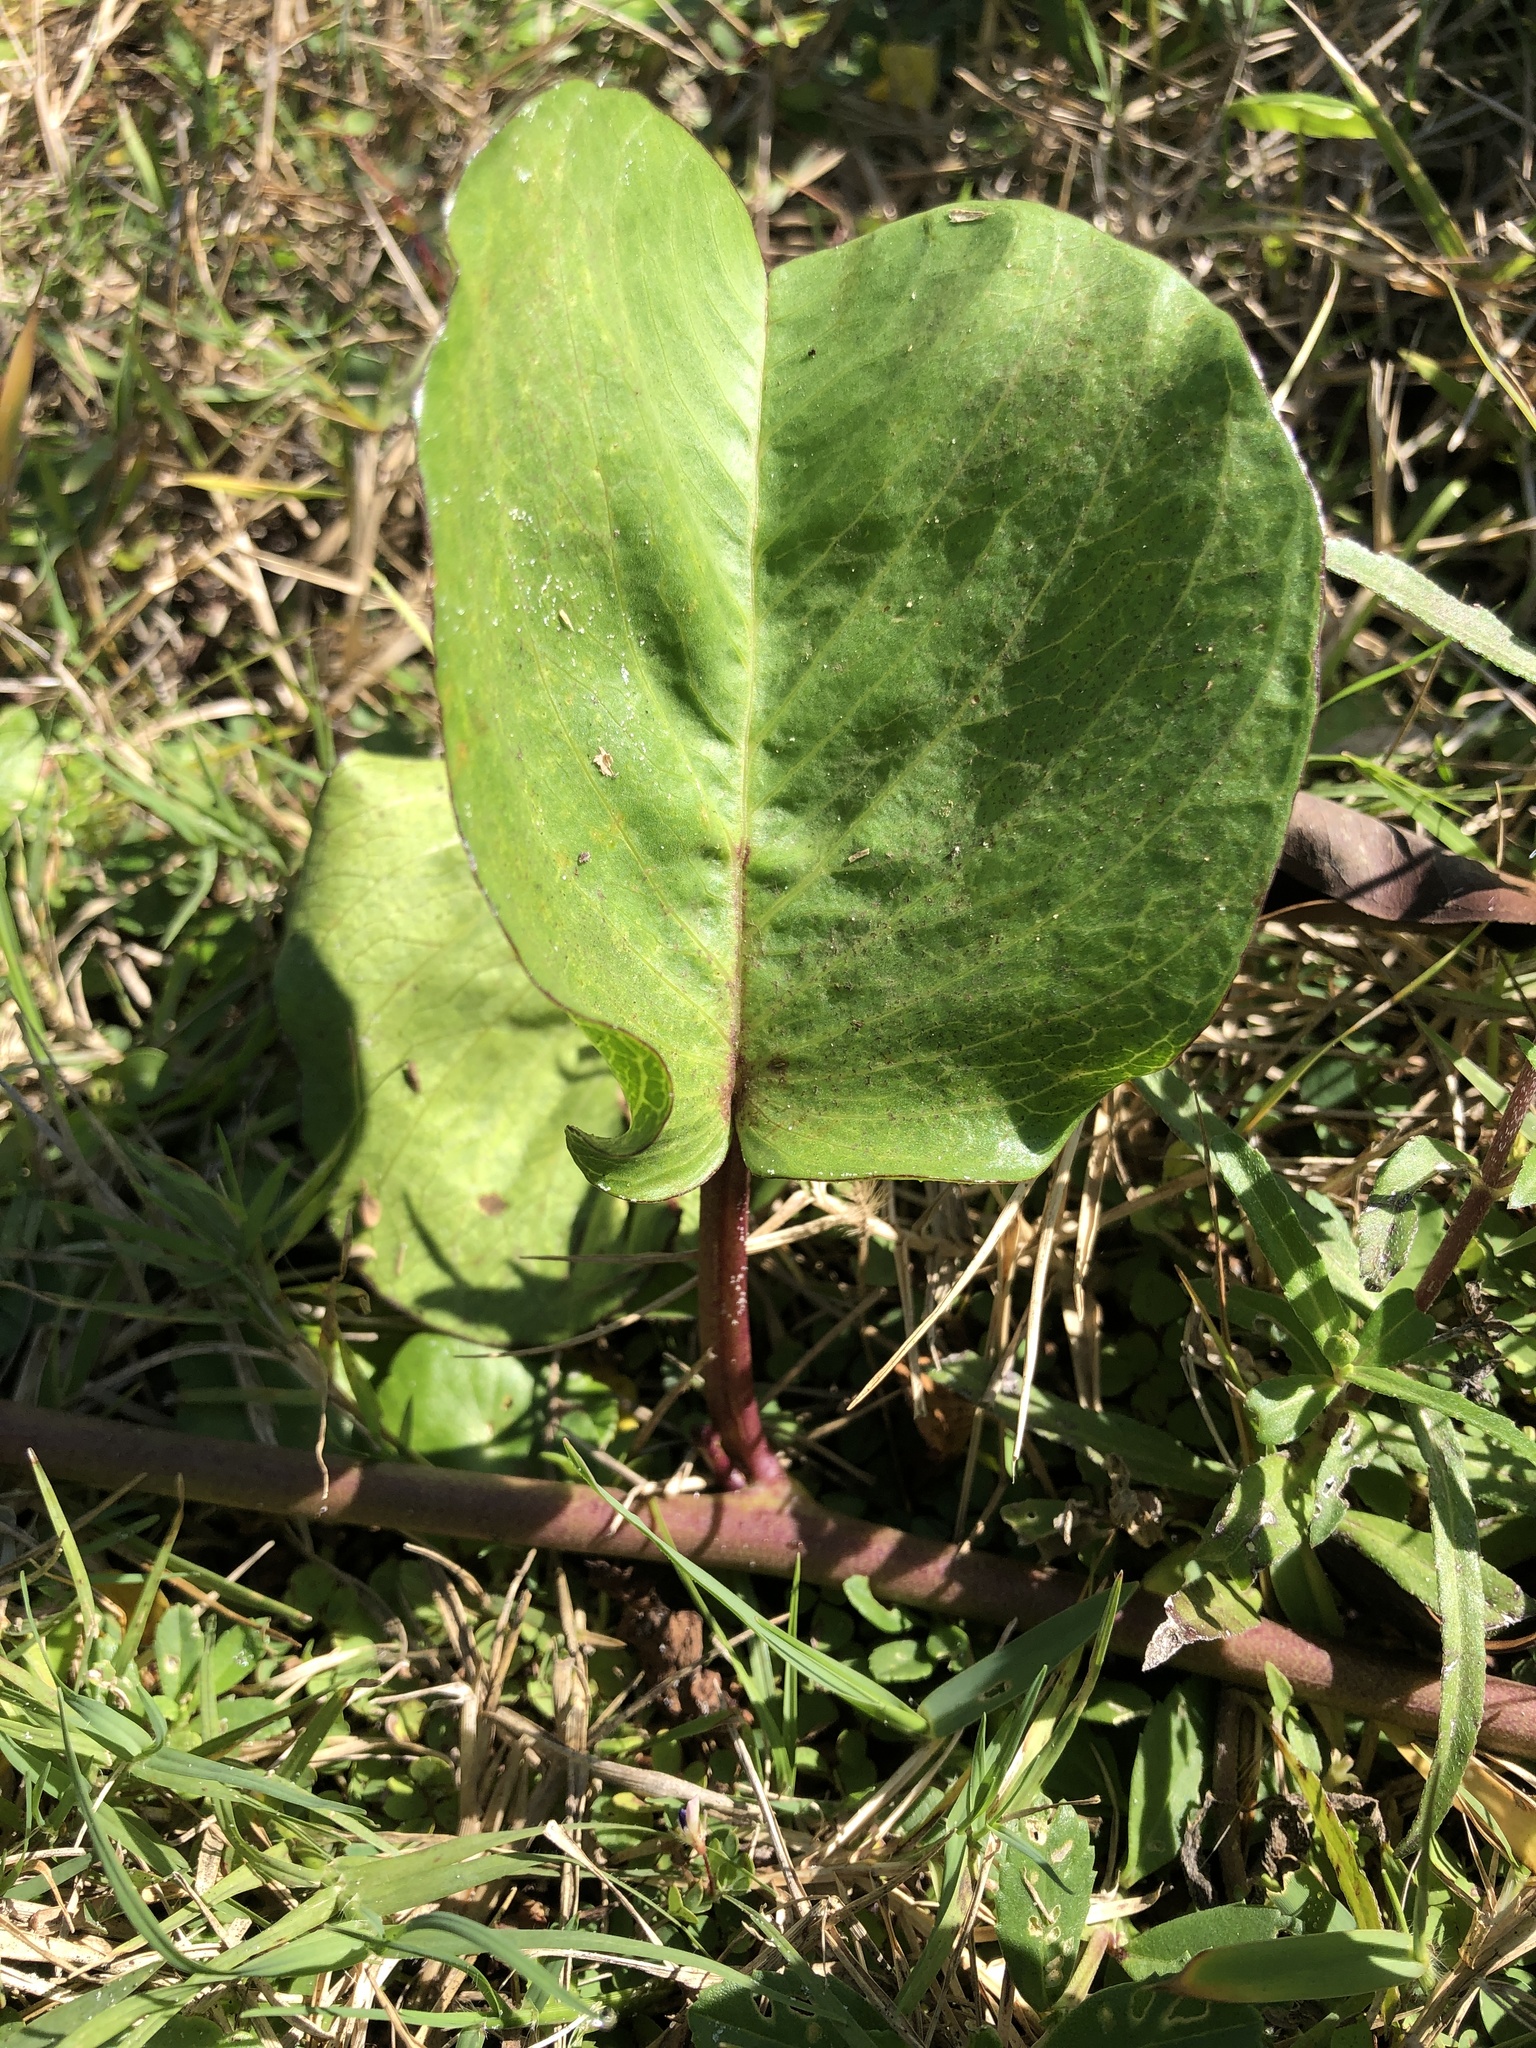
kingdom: Plantae
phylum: Tracheophyta
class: Magnoliopsida
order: Solanales
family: Convolvulaceae
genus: Ipomoea
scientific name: Ipomoea pes-caprae
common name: Beach morning glory
